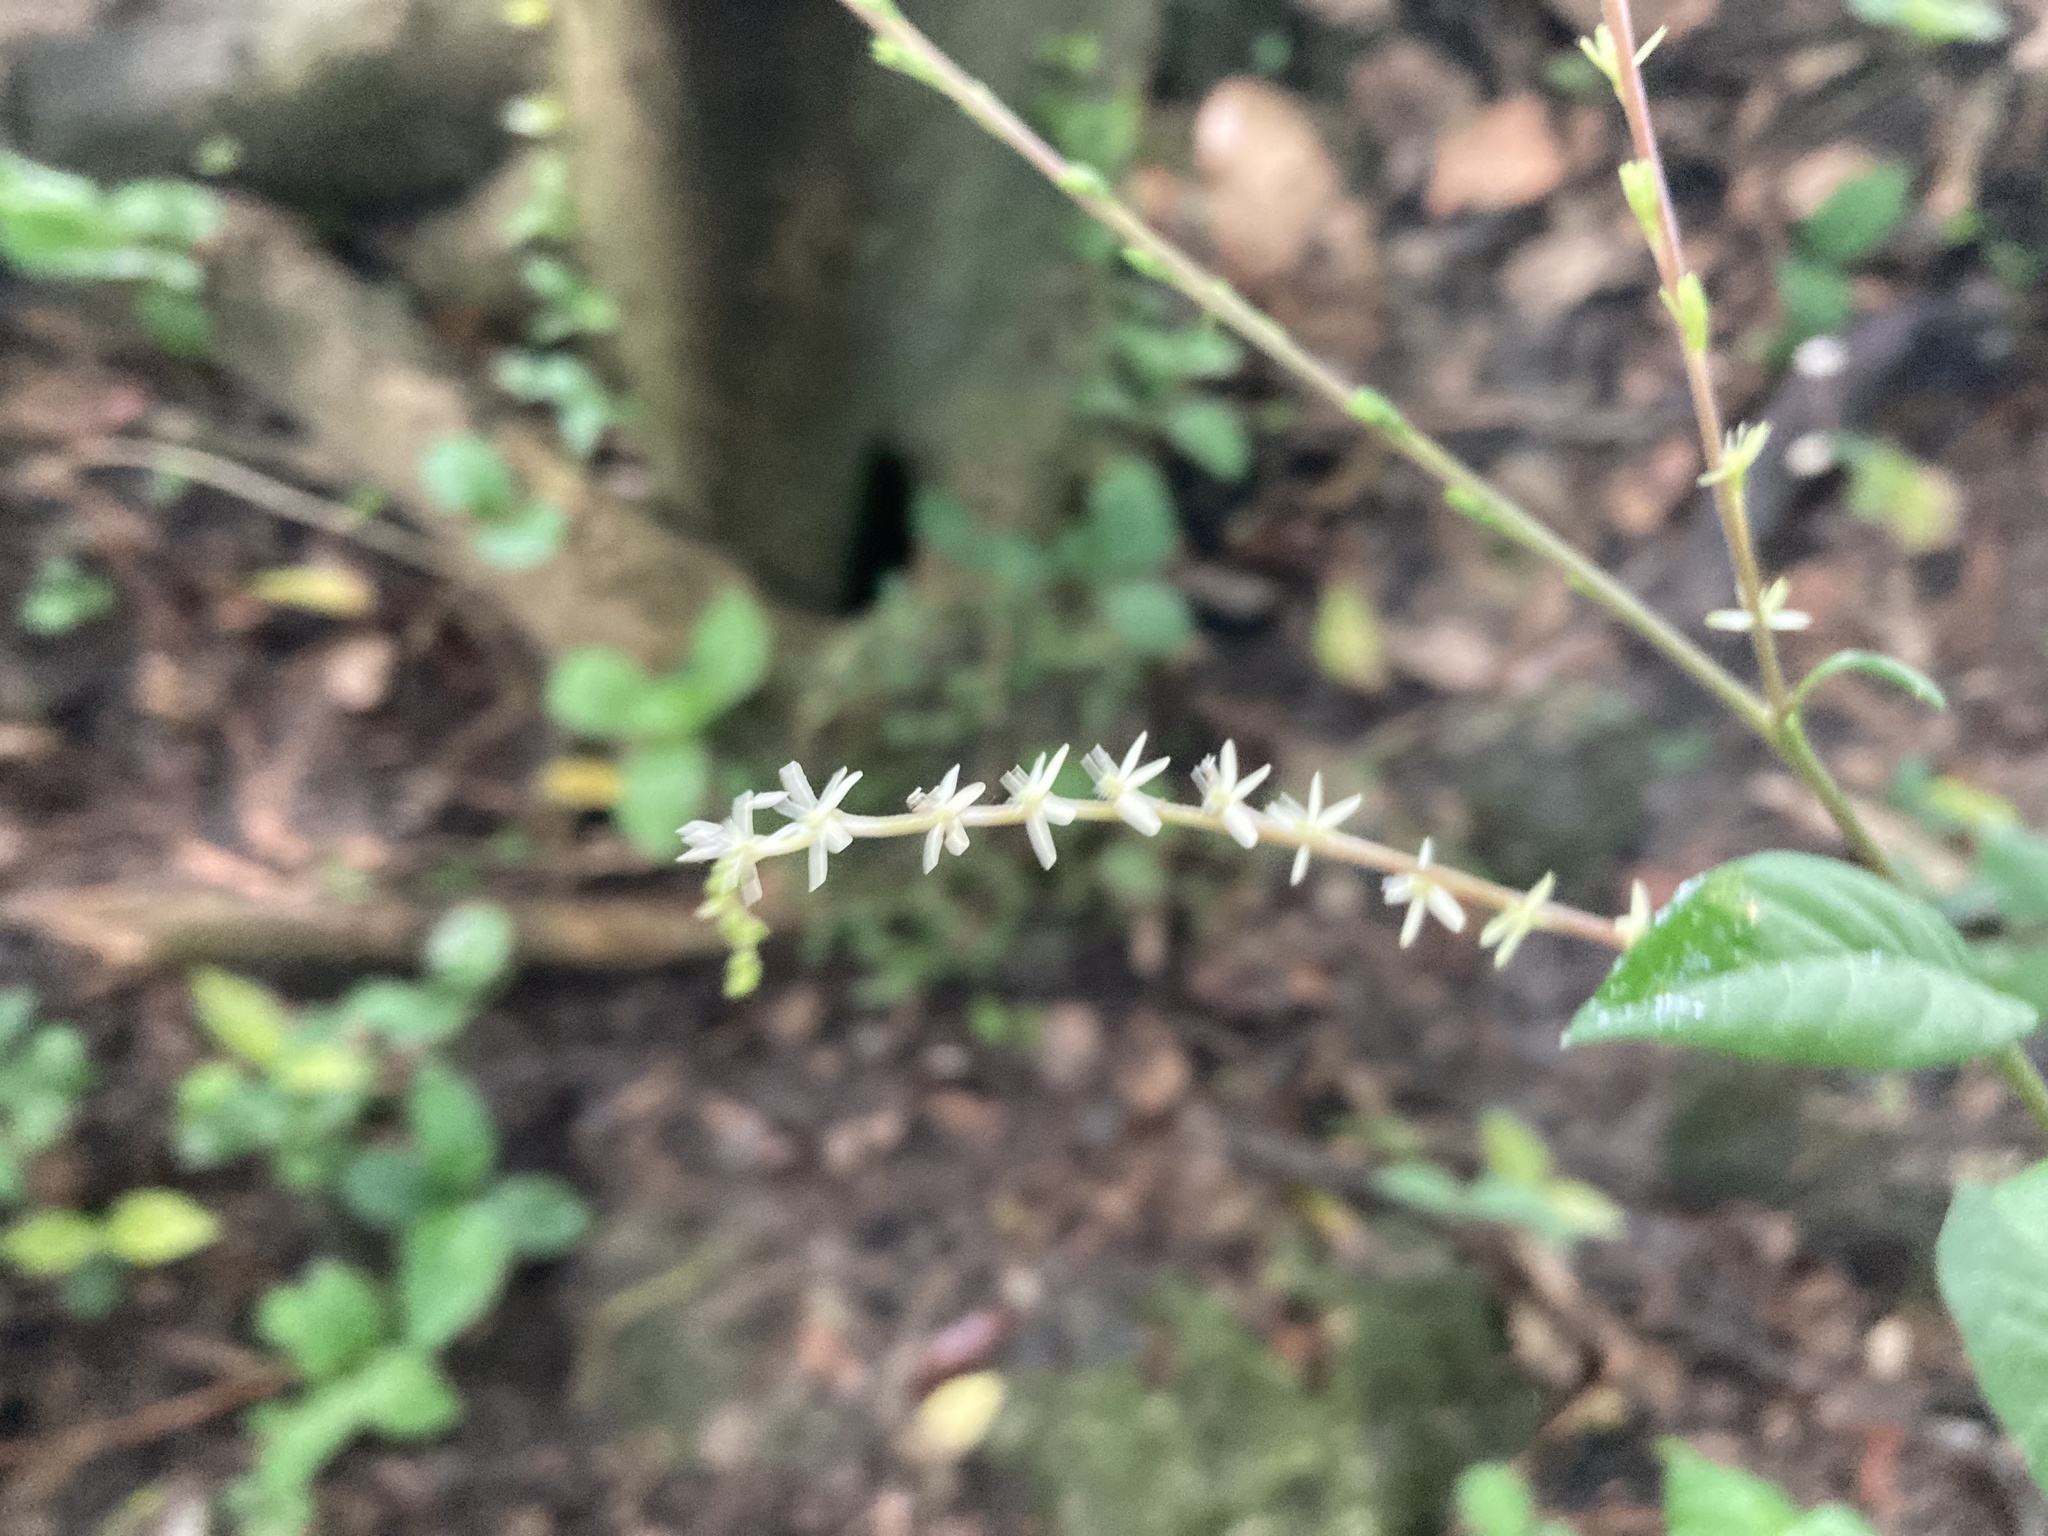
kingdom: Plantae
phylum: Tracheophyta
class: Magnoliopsida
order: Caryophyllales
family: Phytolaccaceae
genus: Petiveria
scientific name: Petiveria alliacea
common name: Garlicweed
